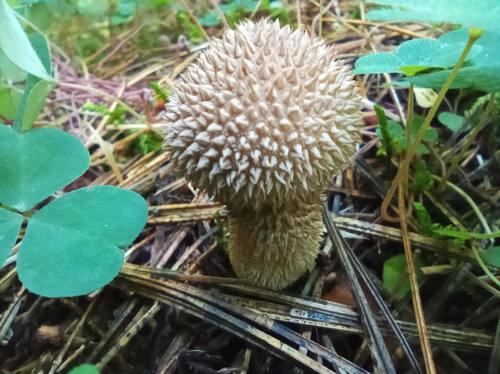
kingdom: Fungi
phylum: Basidiomycota
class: Agaricomycetes
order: Agaricales
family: Lycoperdaceae
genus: Lycoperdon
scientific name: Lycoperdon echinatum
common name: Hedgehog puffball
